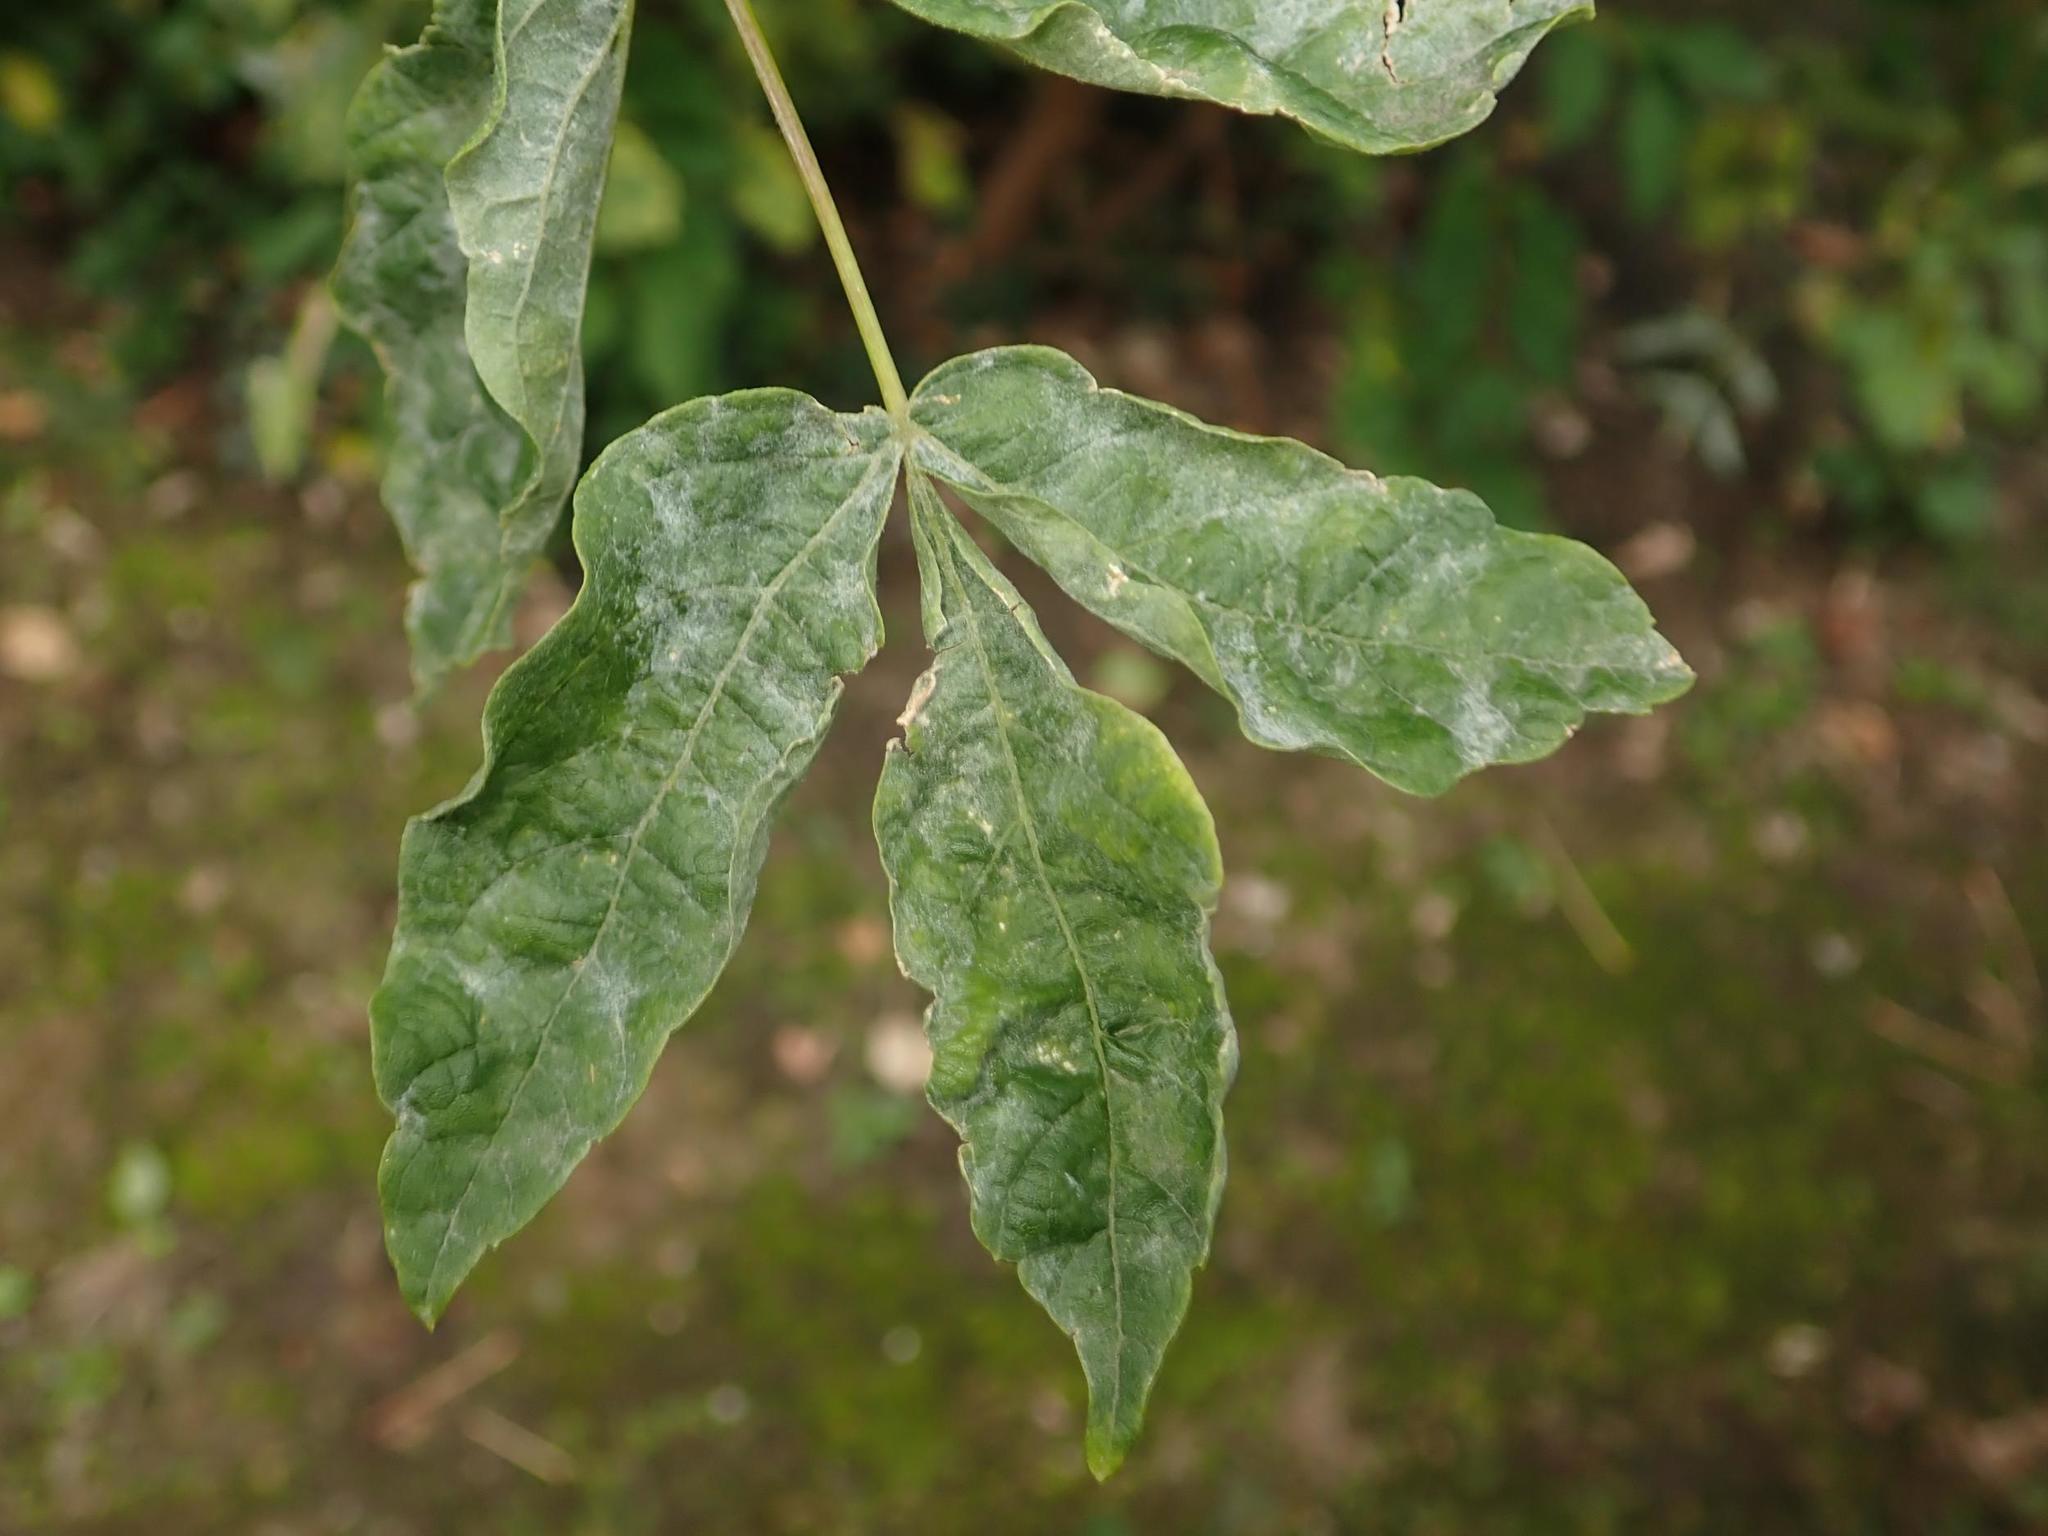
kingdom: Plantae
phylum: Tracheophyta
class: Magnoliopsida
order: Sapindales
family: Sapindaceae
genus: Acer
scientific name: Acer negundo
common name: Ashleaf maple
